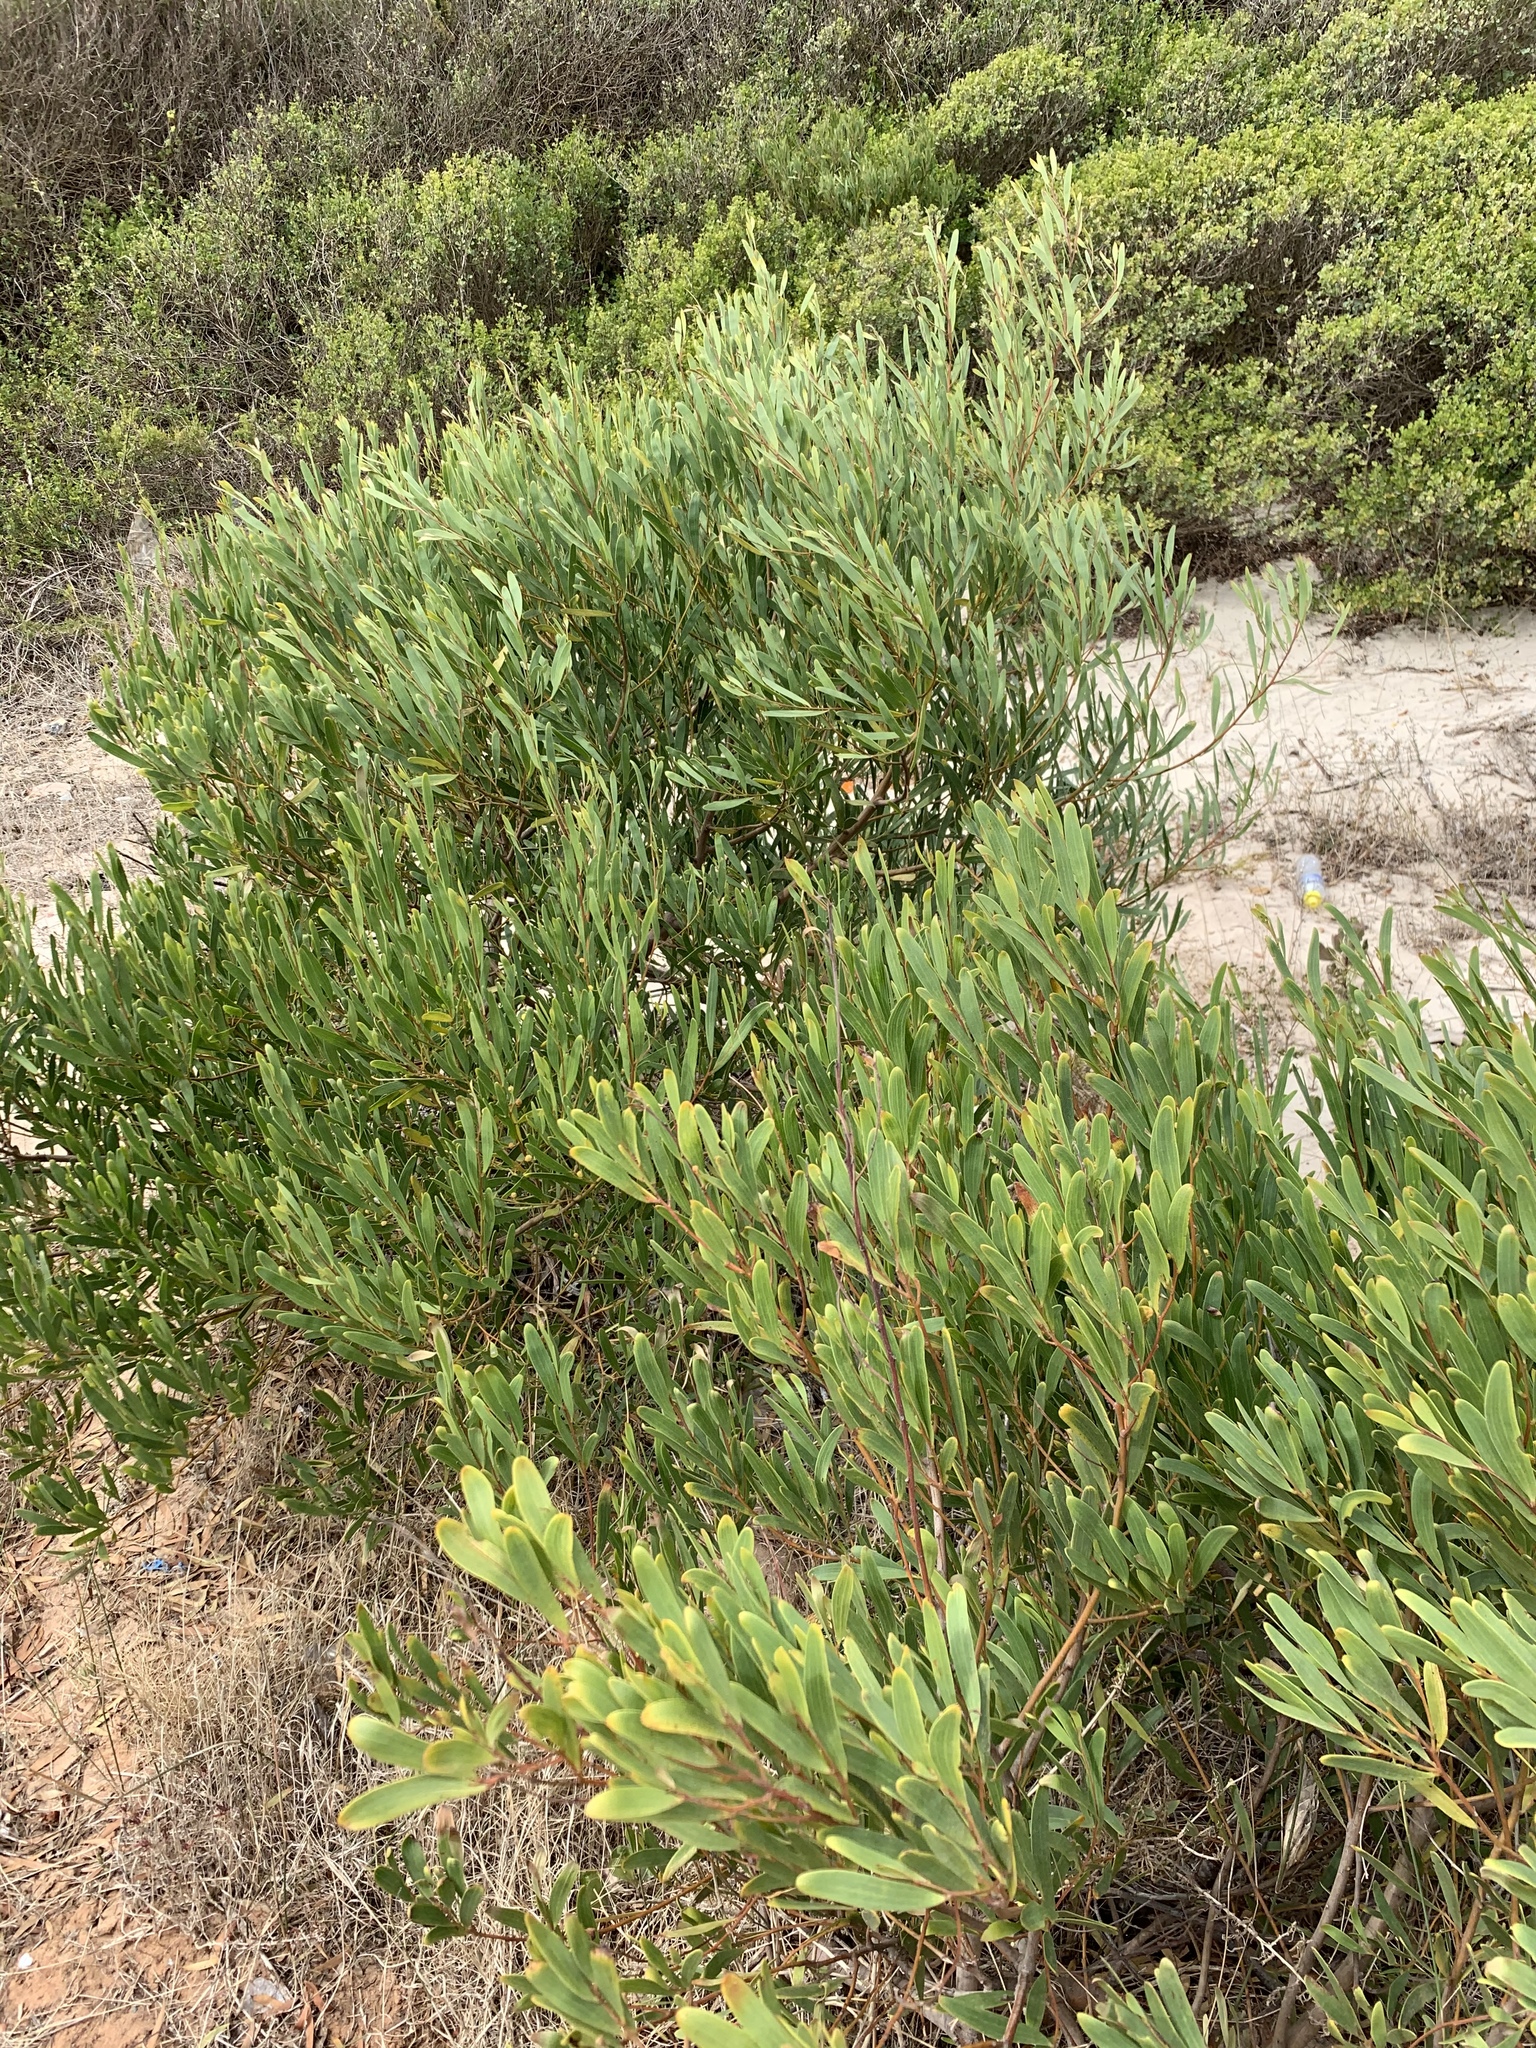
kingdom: Plantae
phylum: Tracheophyta
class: Magnoliopsida
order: Fabales
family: Fabaceae
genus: Acacia
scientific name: Acacia cyclops
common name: Coastal wattle
